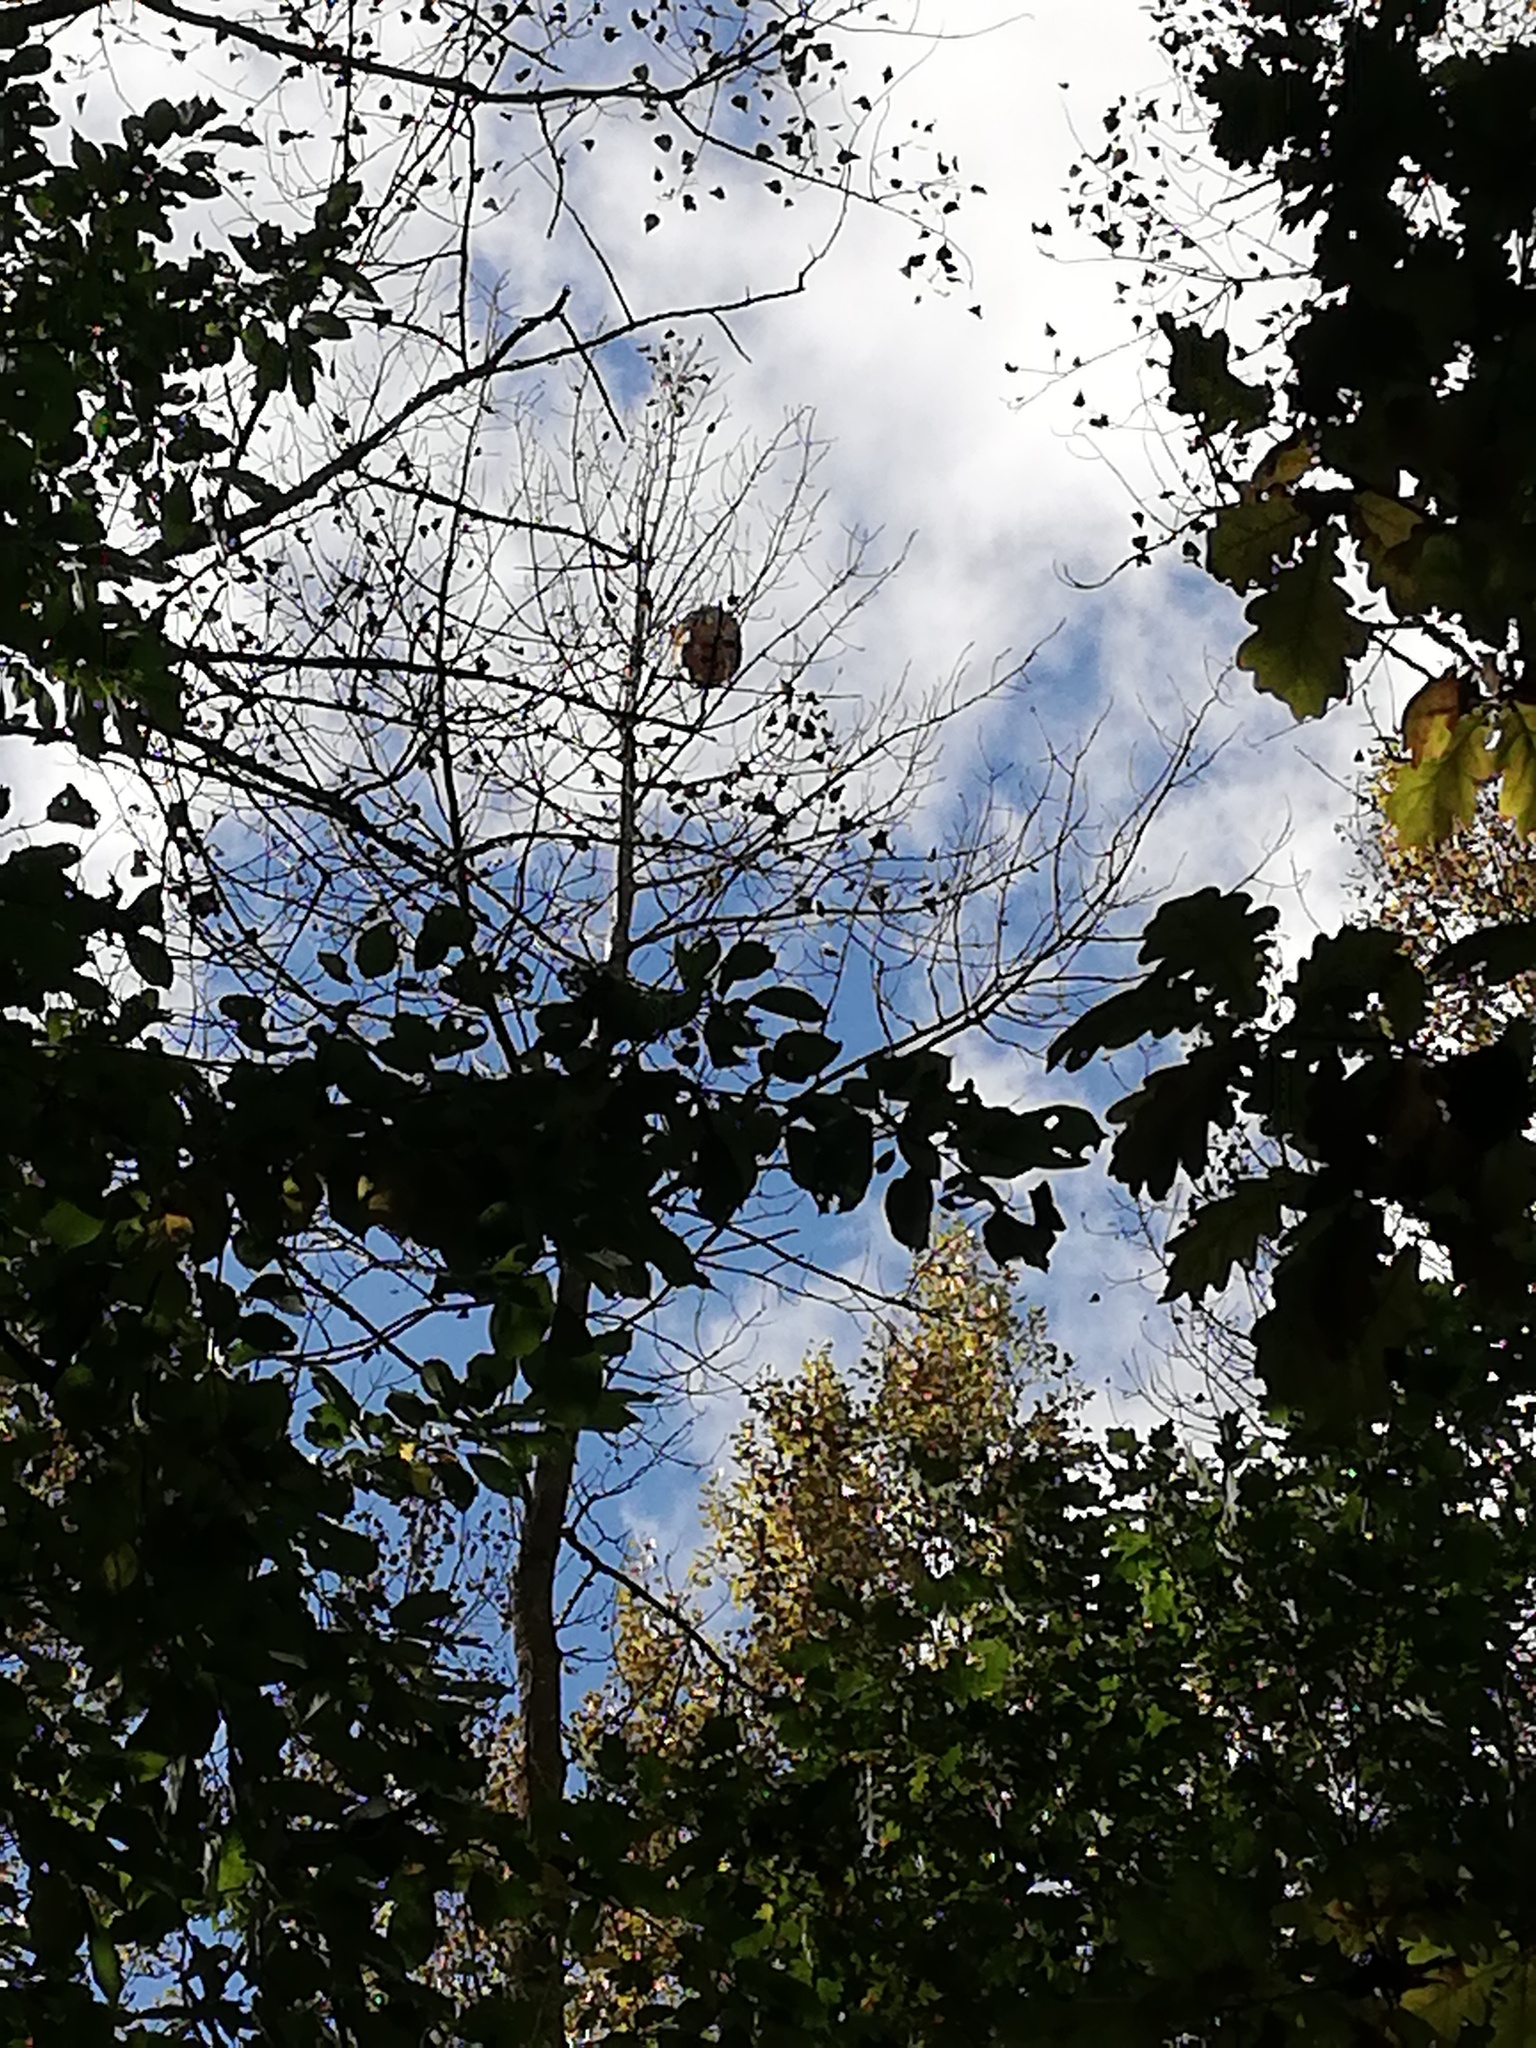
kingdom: Animalia
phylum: Arthropoda
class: Insecta
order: Hymenoptera
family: Vespidae
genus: Vespa
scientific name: Vespa velutina
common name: Asian hornet
